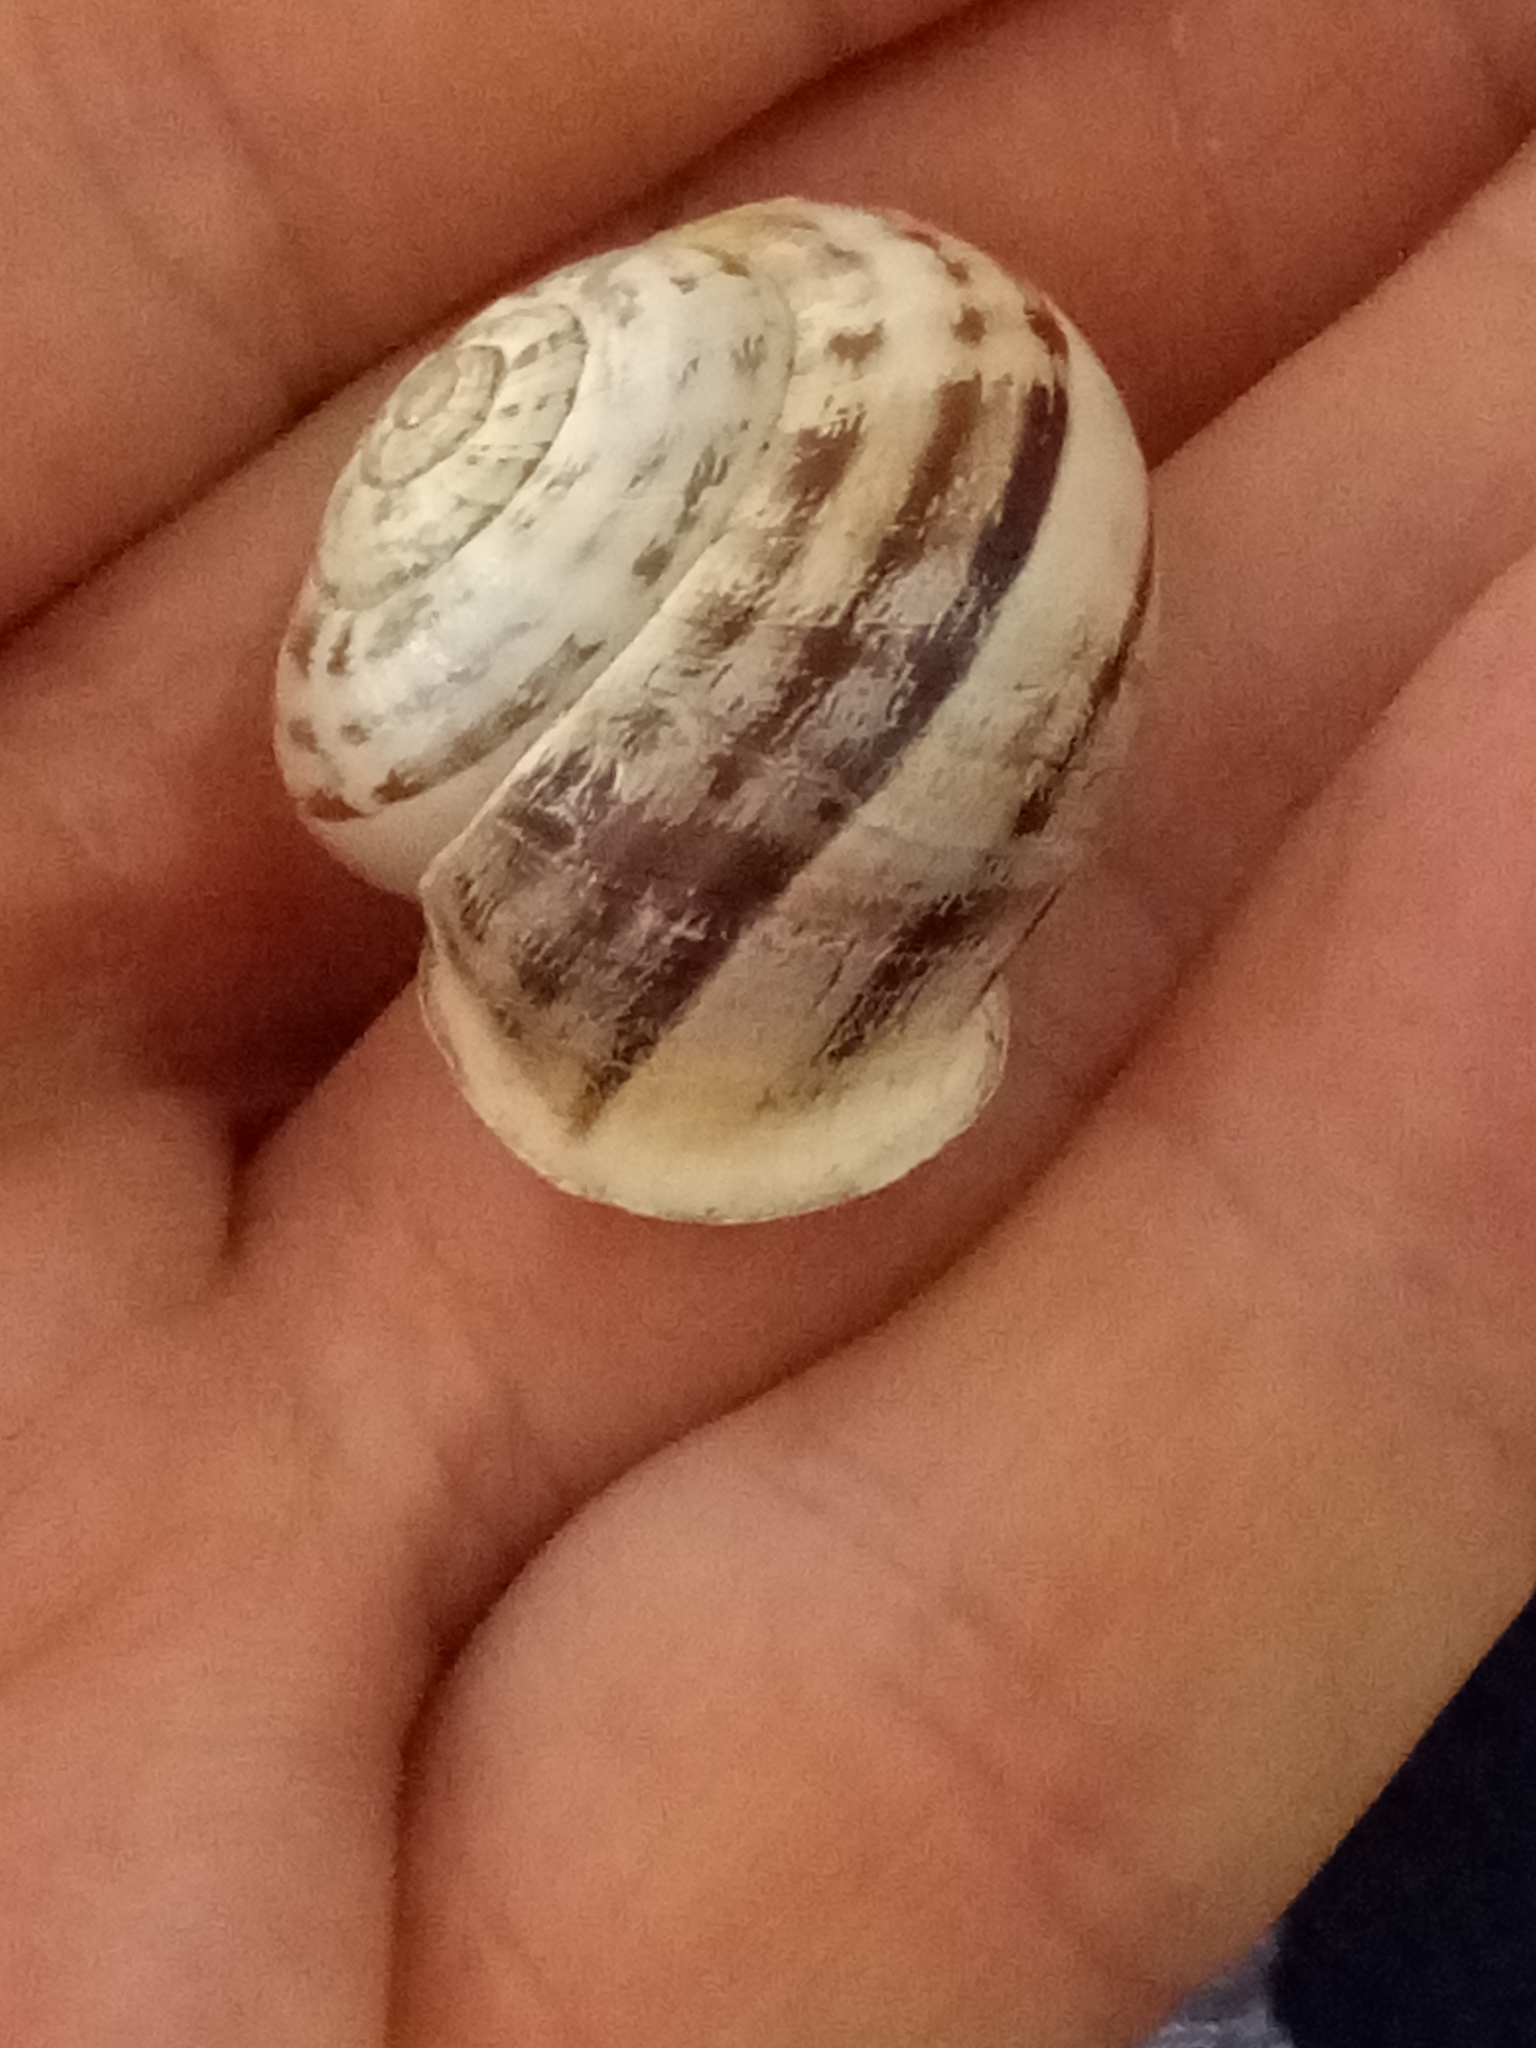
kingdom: Animalia
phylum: Mollusca
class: Gastropoda
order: Stylommatophora
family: Helicidae
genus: Eobania
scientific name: Eobania vermiculata
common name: Chocolateband snail
